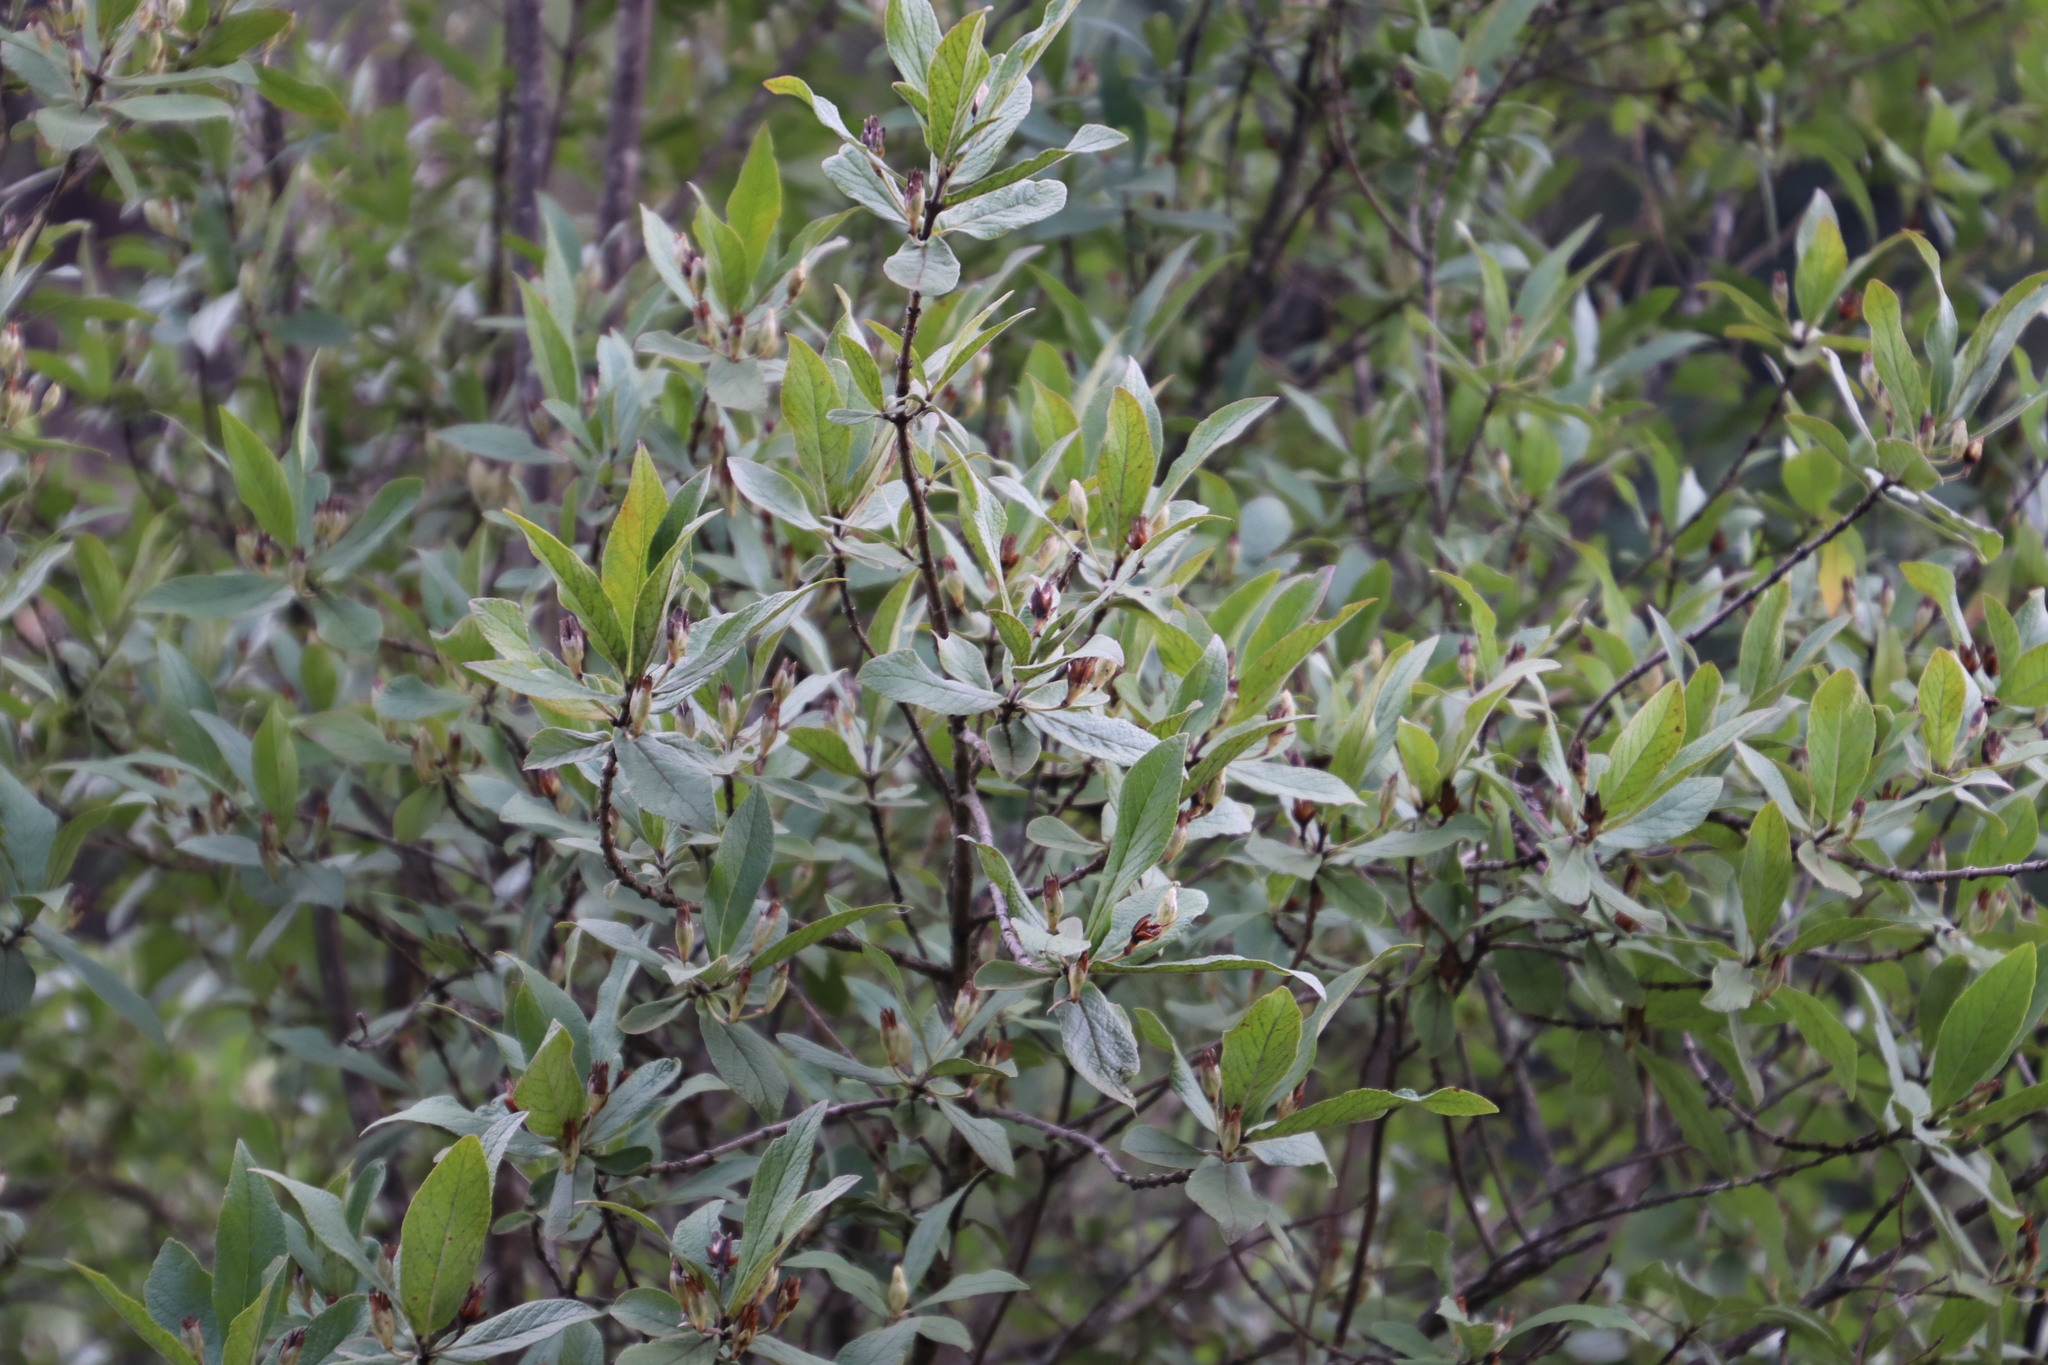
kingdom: Plantae
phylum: Tracheophyta
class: Magnoliopsida
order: Lamiales
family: Stilbaceae
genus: Bowkeria
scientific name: Bowkeria verticillata
